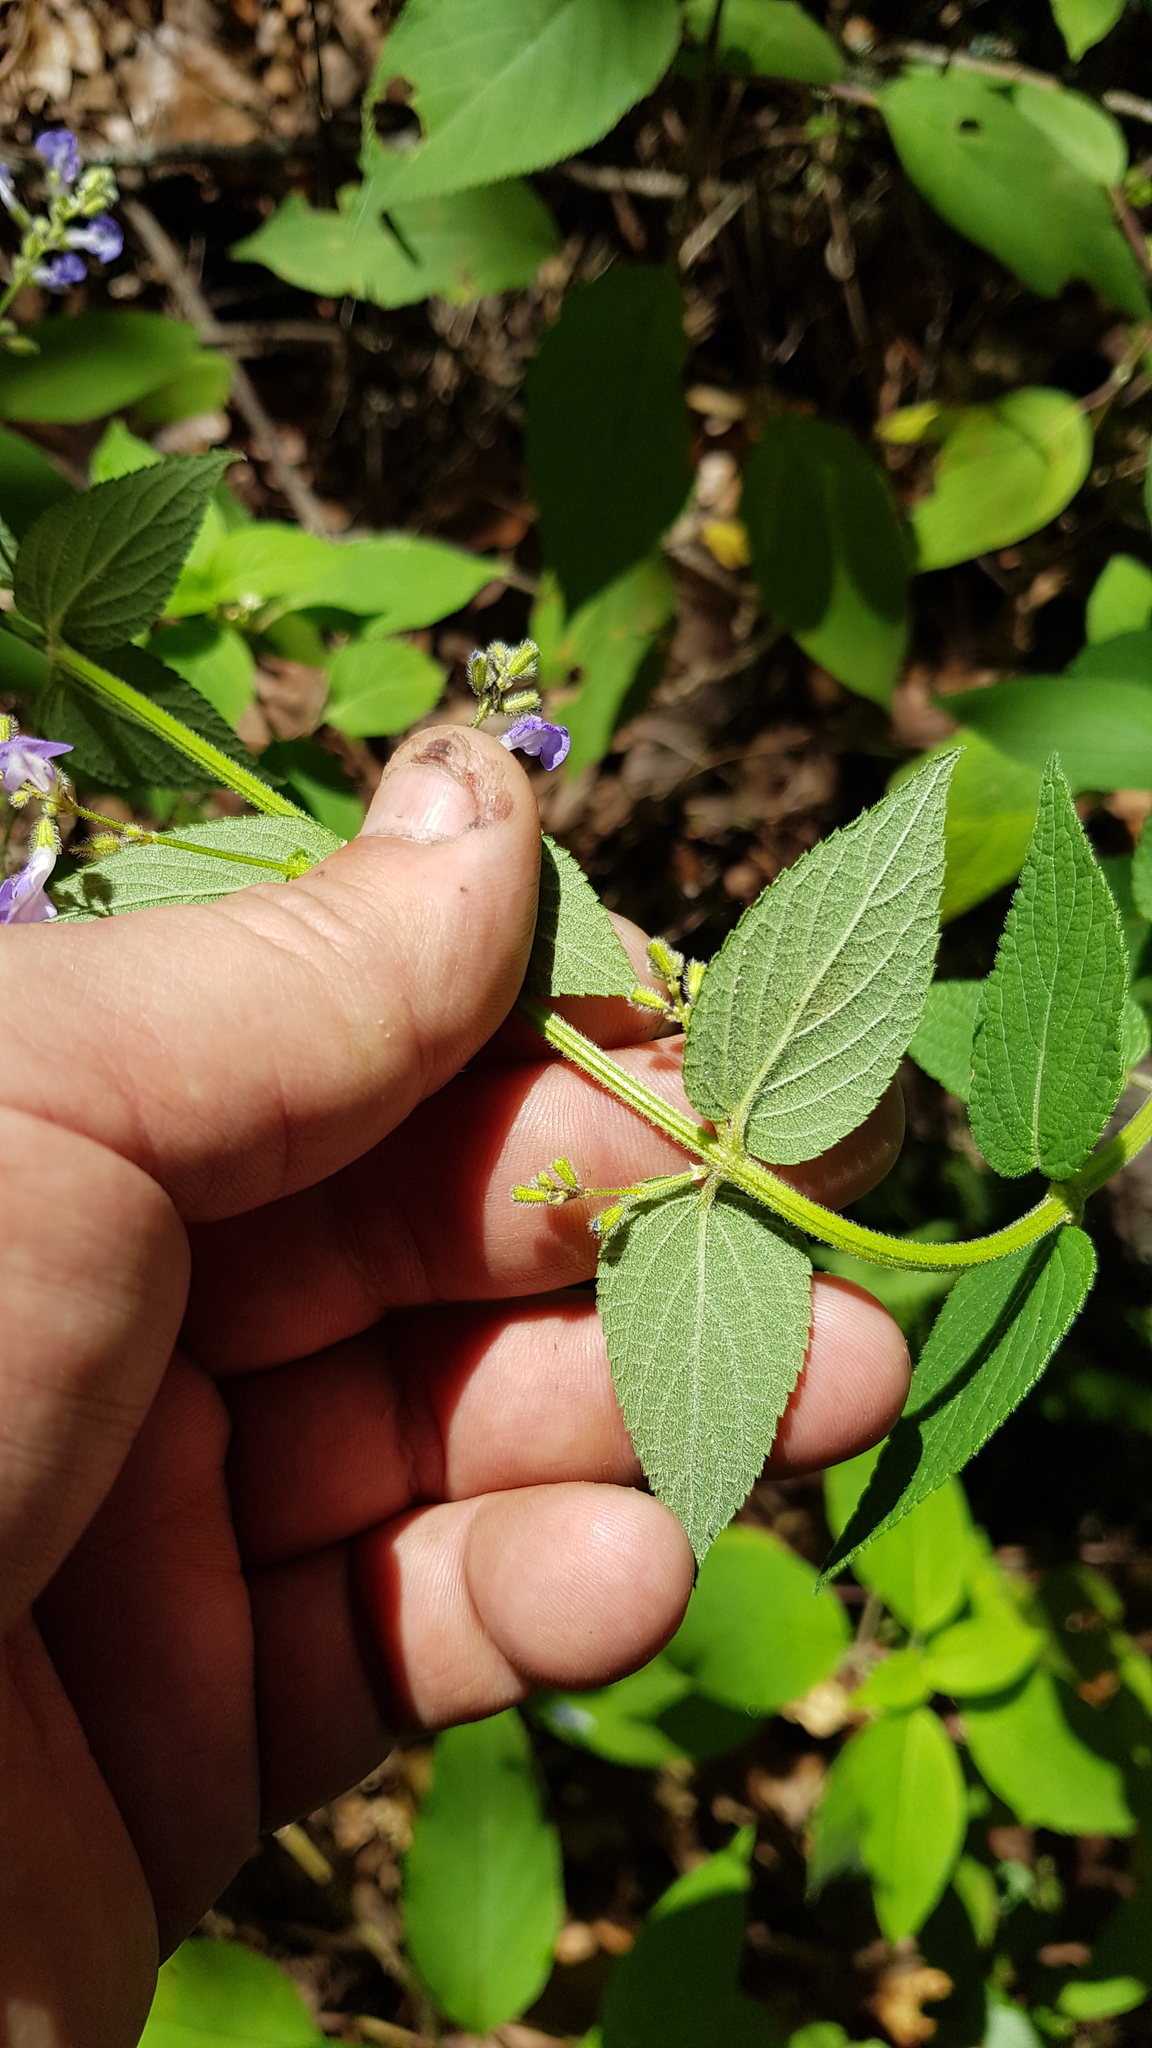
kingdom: Plantae
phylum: Tracheophyta
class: Magnoliopsida
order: Lamiales
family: Lamiaceae
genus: Salvia
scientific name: Salvia protracta
